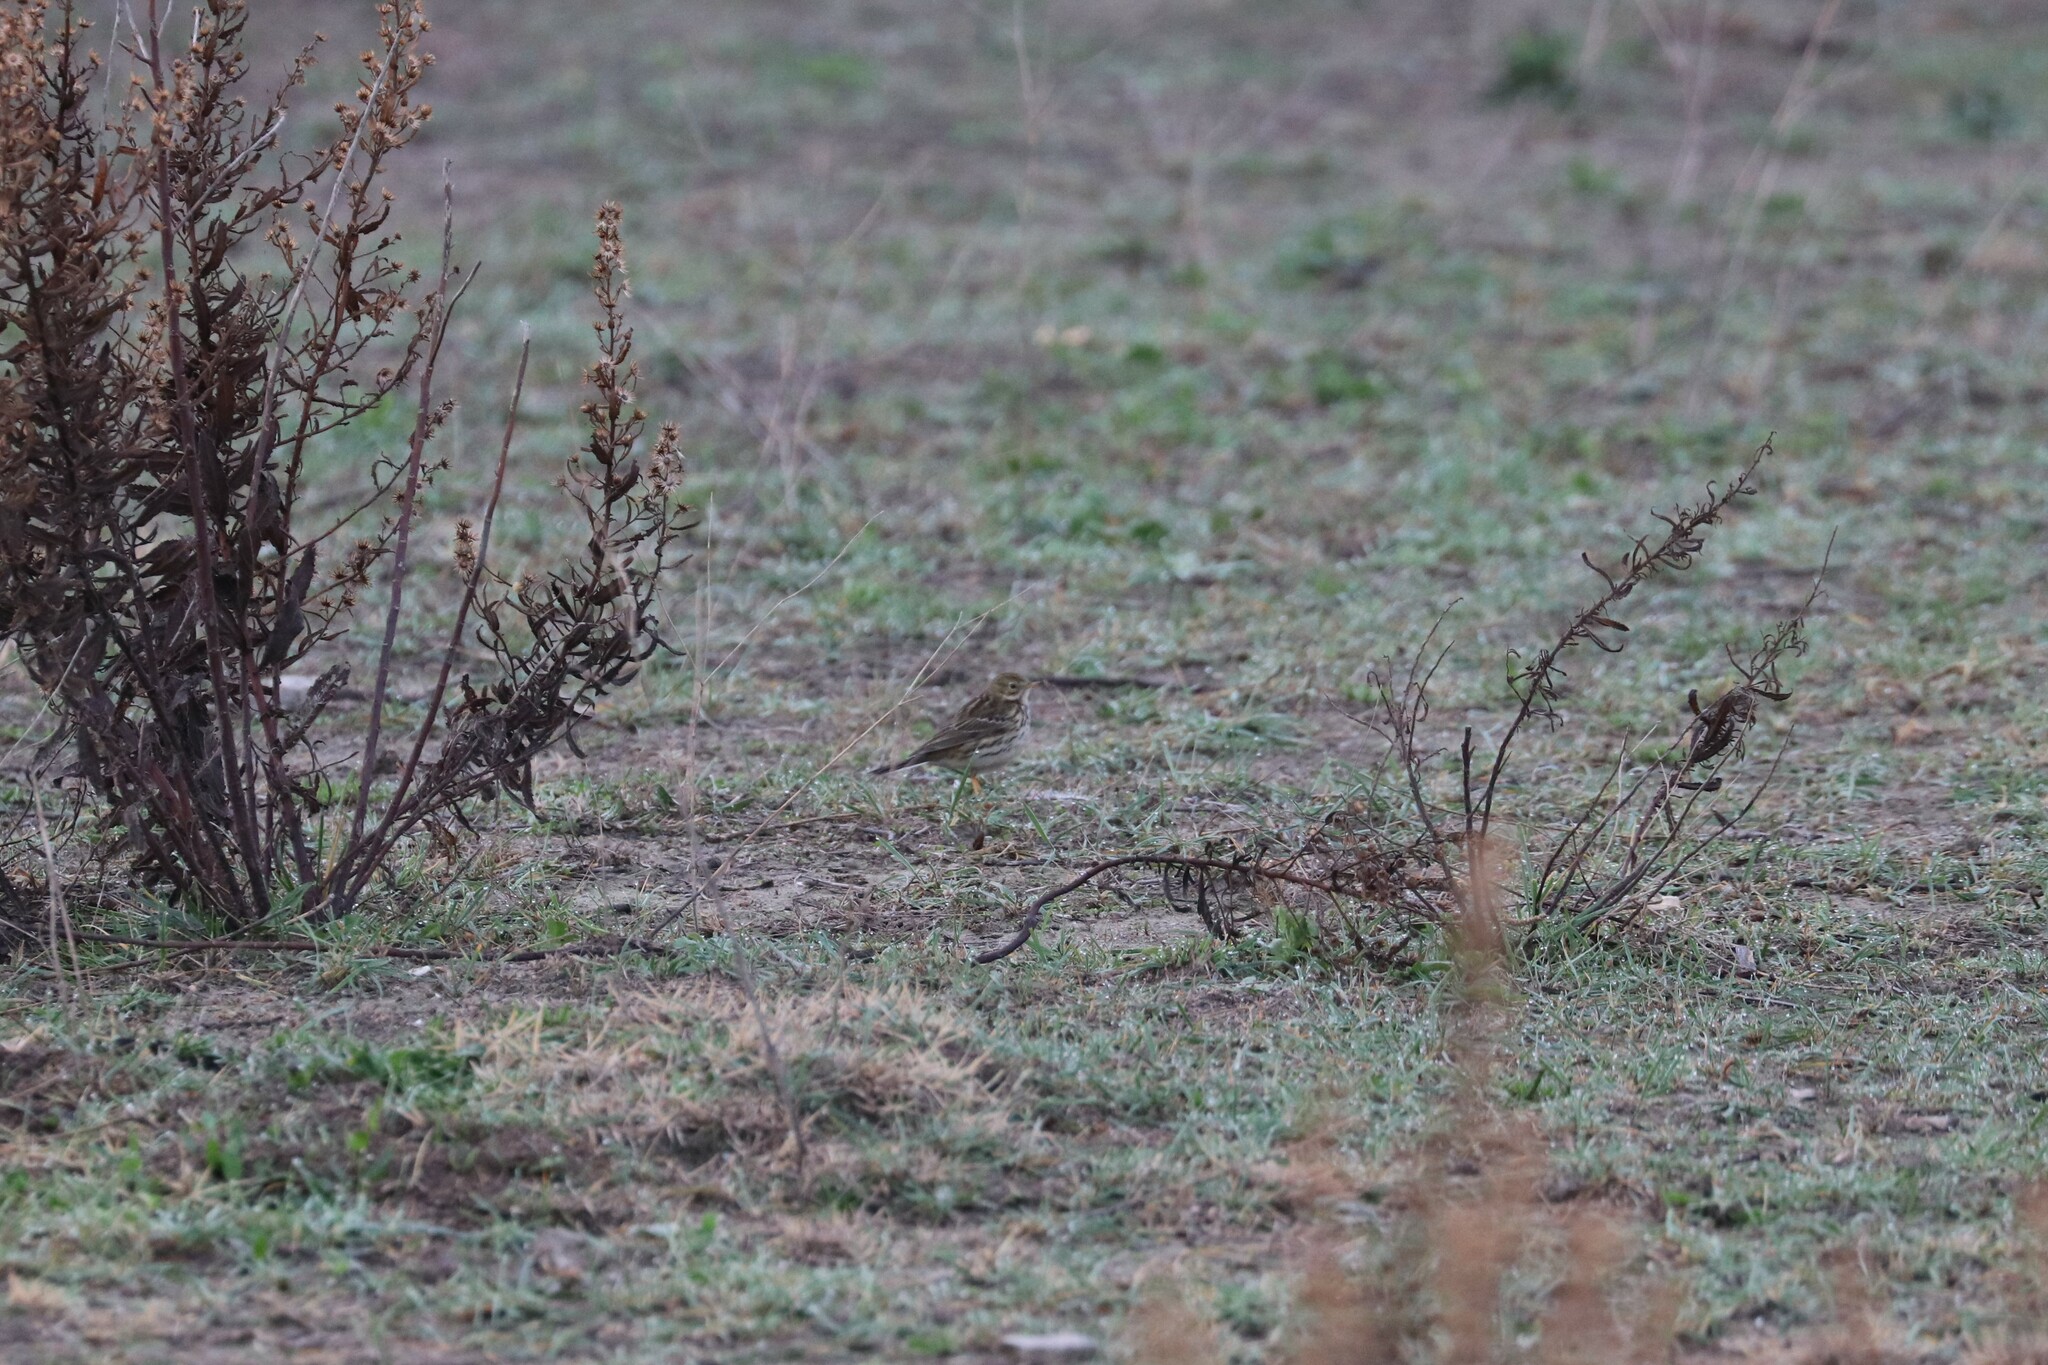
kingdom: Animalia
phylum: Chordata
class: Aves
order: Passeriformes
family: Motacillidae
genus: Anthus
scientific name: Anthus pratensis
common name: Meadow pipit
